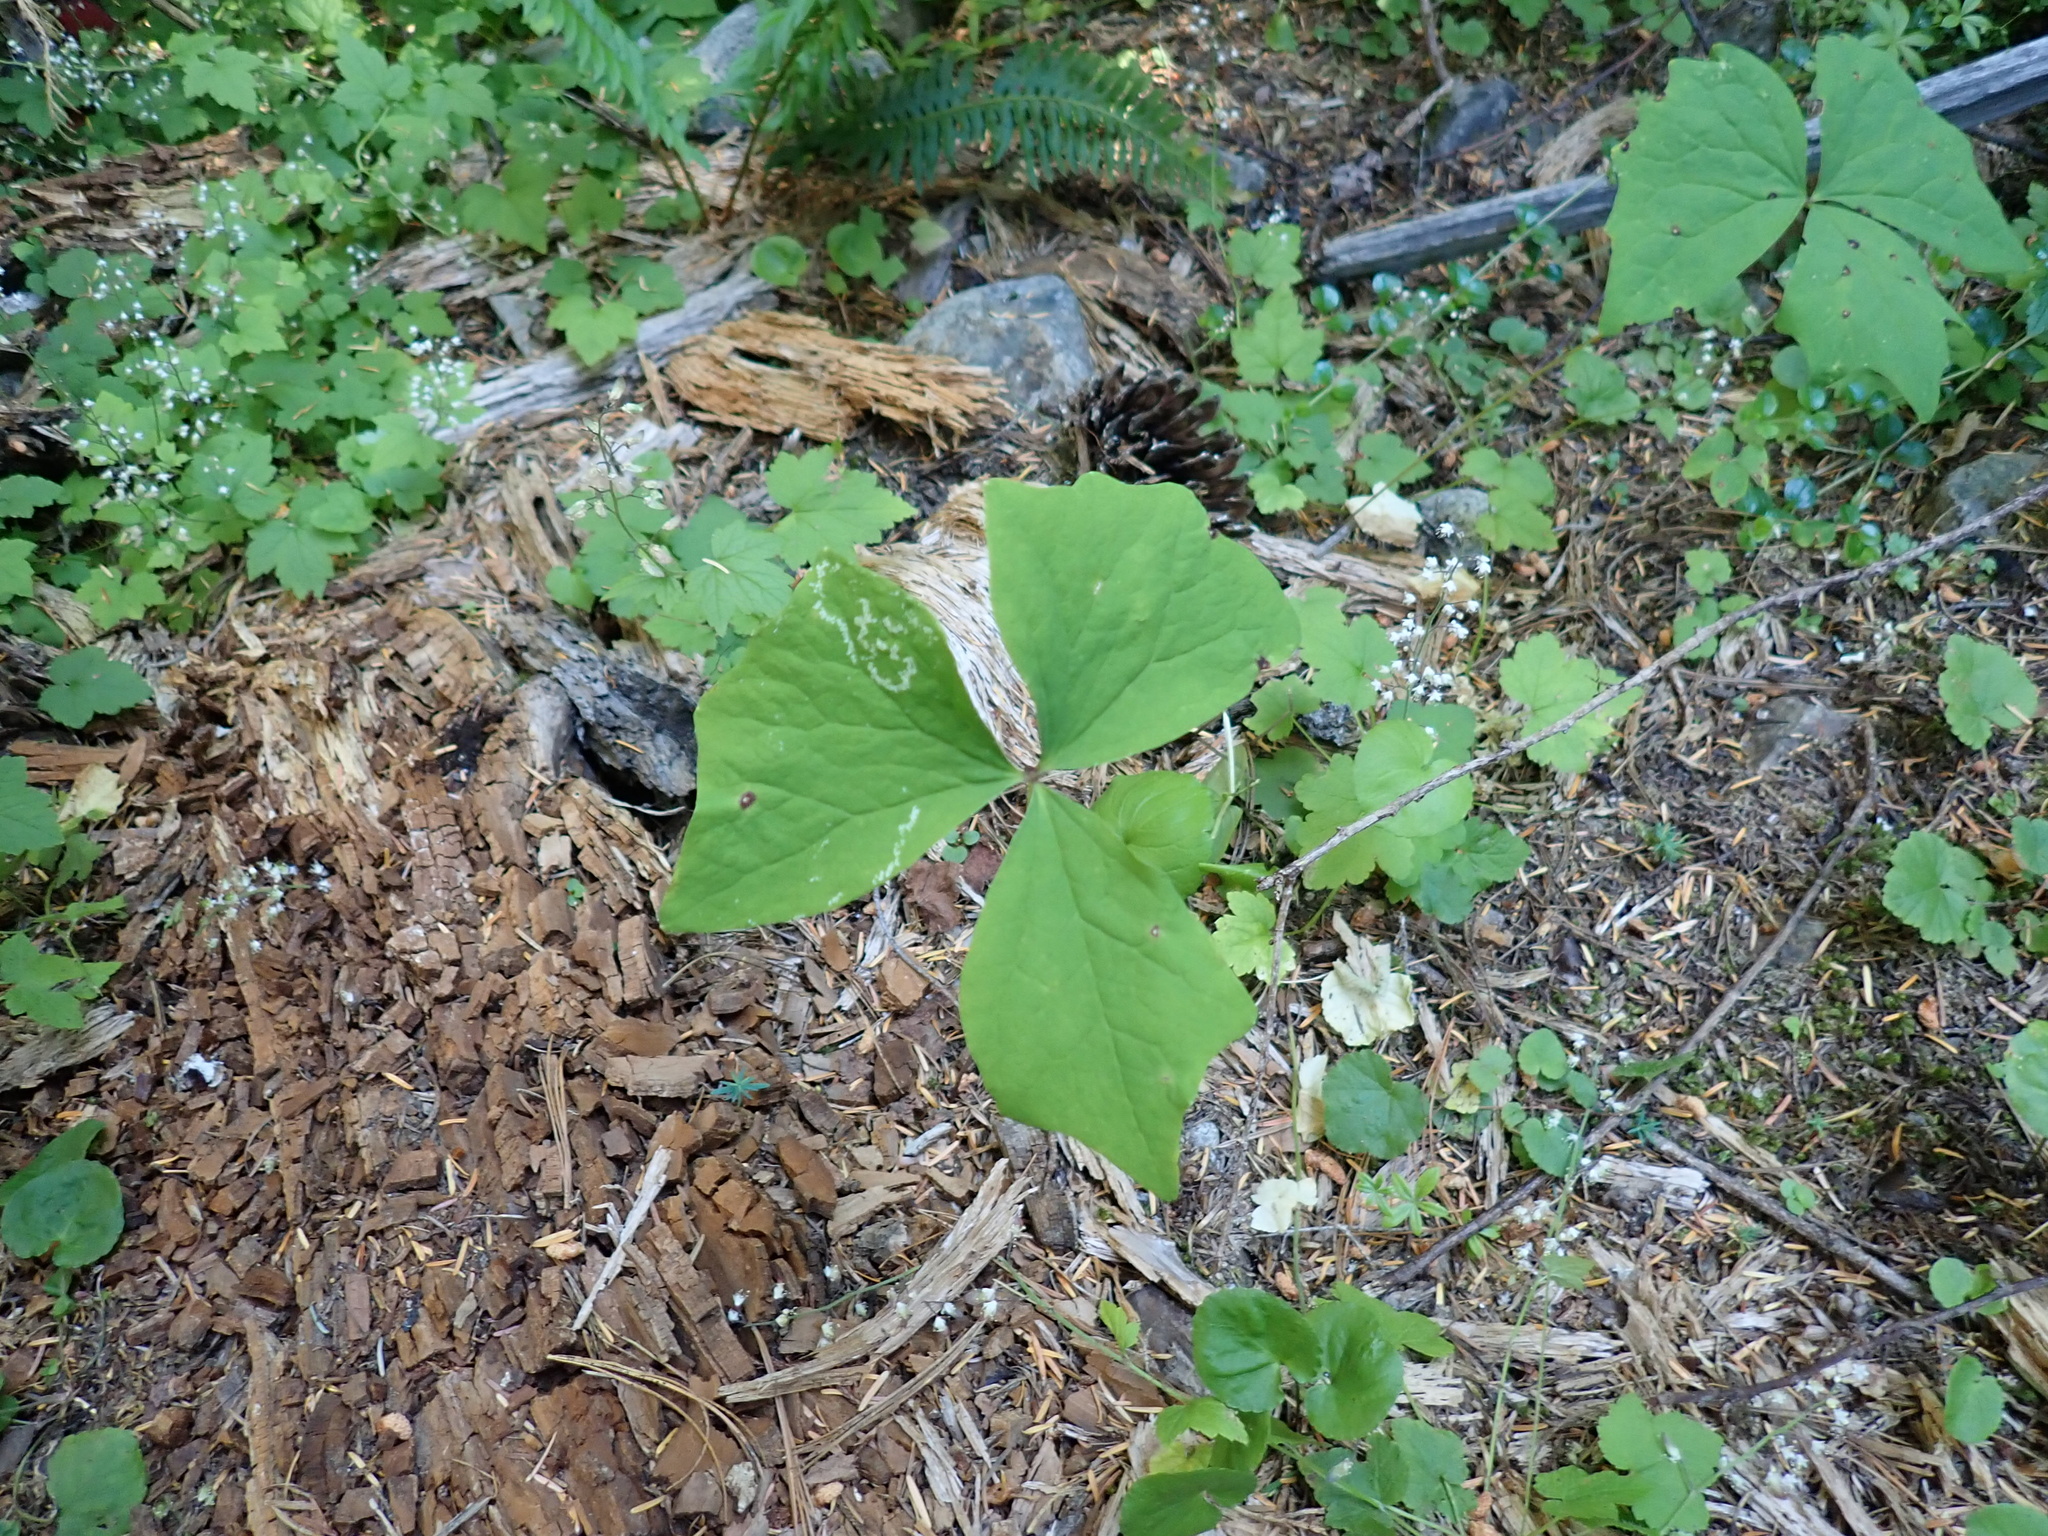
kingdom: Plantae
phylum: Tracheophyta
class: Magnoliopsida
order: Ranunculales
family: Berberidaceae
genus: Achlys
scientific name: Achlys triphylla
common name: Vanilla-leaf
